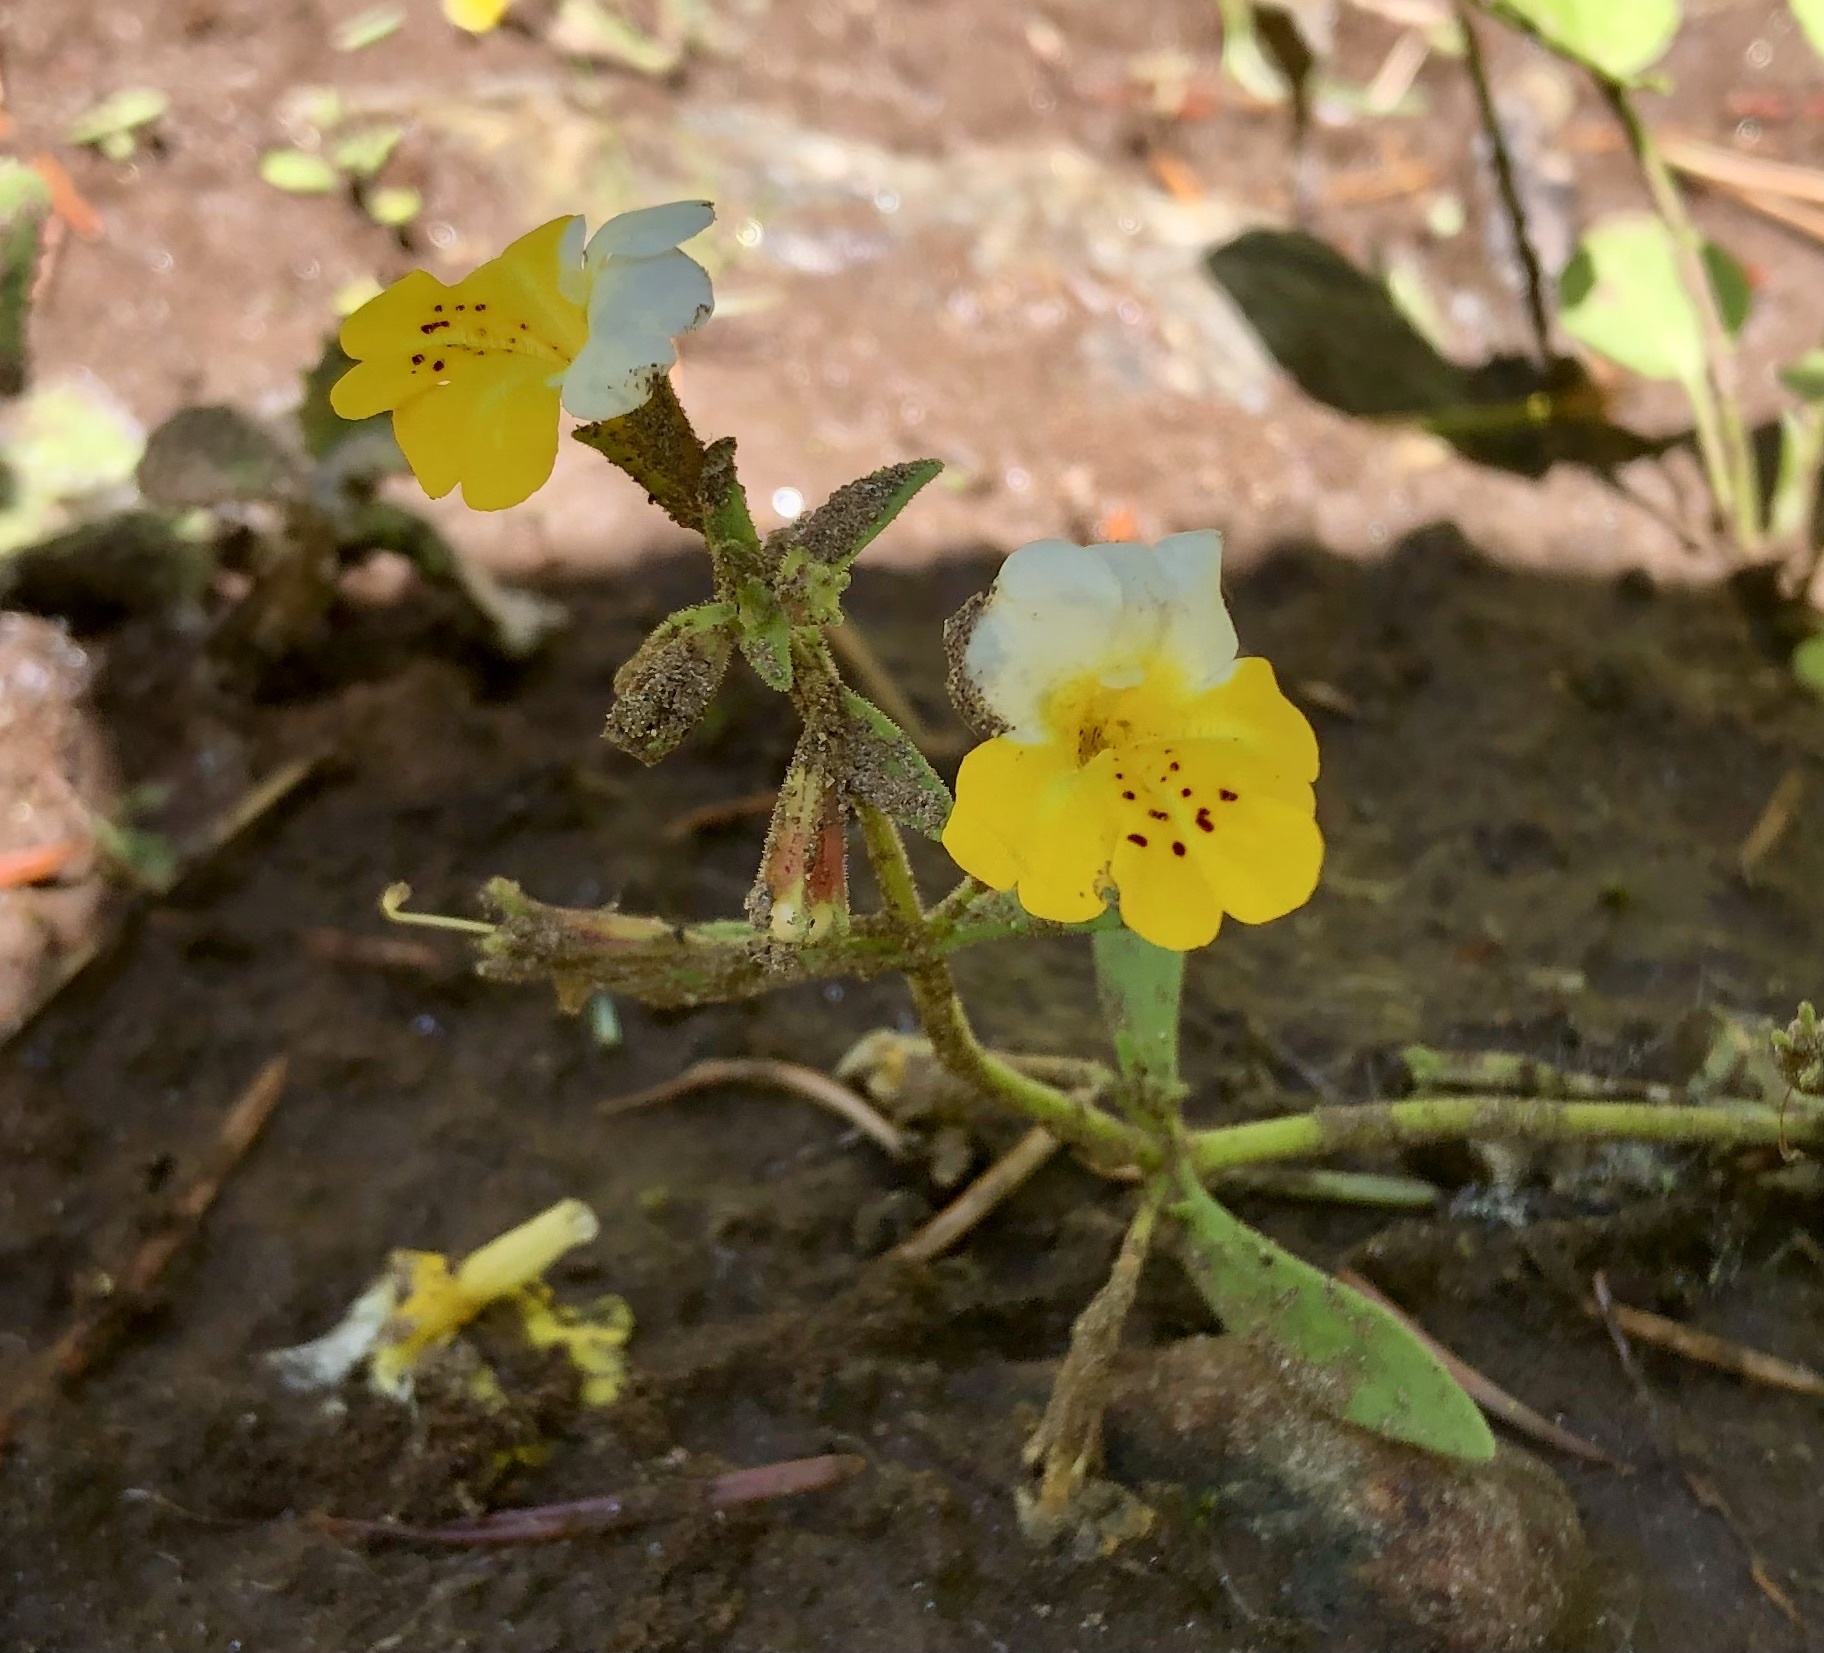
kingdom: Plantae
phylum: Tracheophyta
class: Magnoliopsida
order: Lamiales
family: Phrymaceae
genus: Erythranthe
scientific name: Erythranthe bicolor
